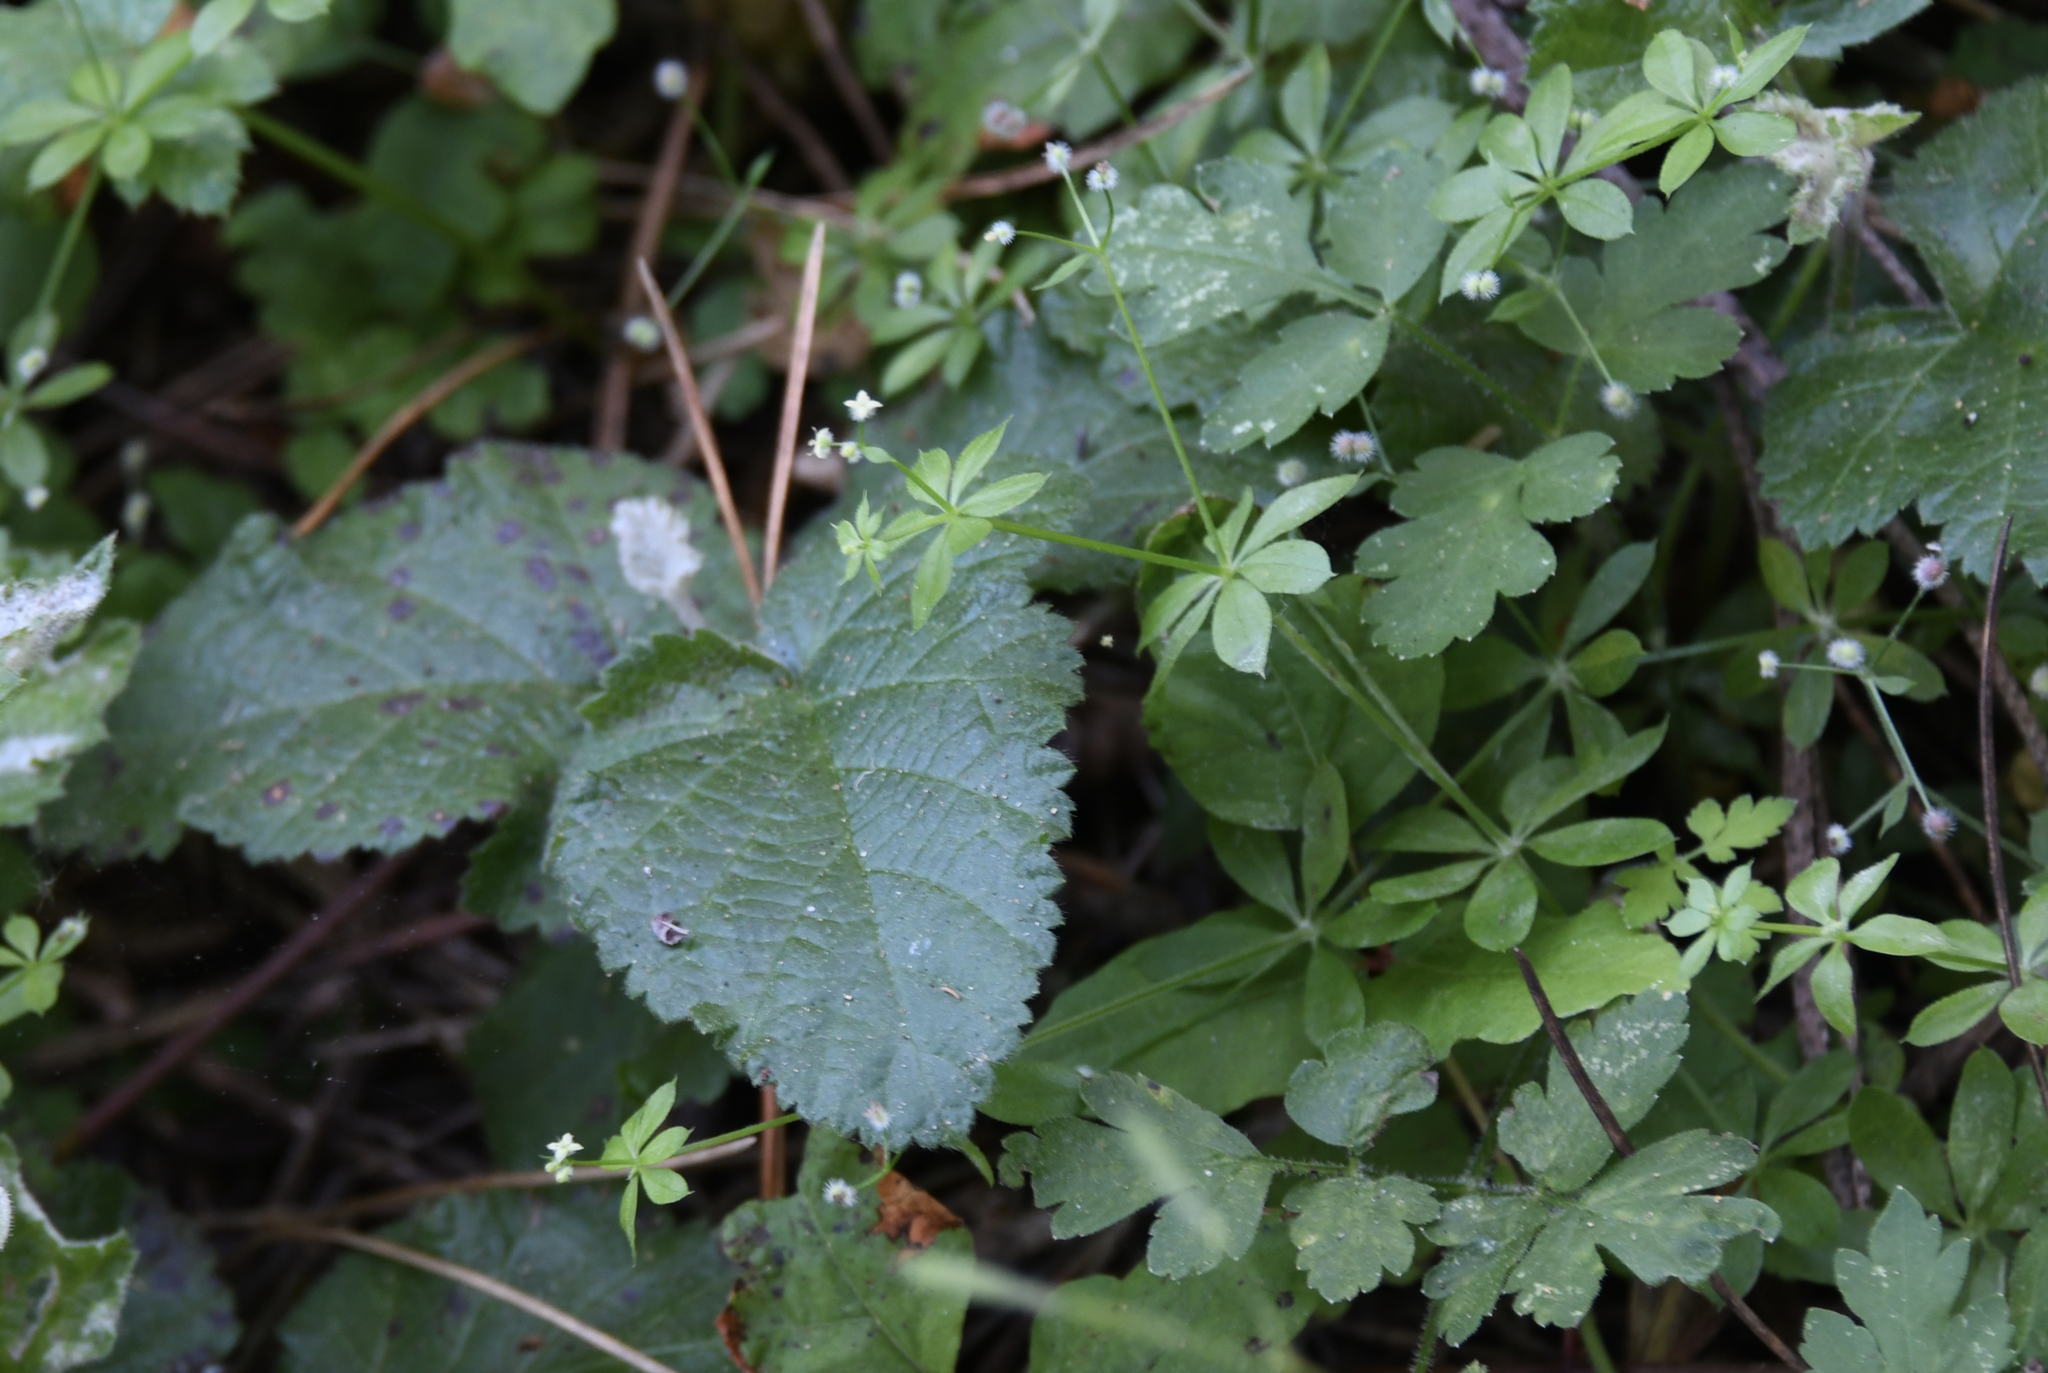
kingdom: Plantae
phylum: Tracheophyta
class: Magnoliopsida
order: Gentianales
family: Rubiaceae
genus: Galium
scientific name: Galium triflorum
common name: Fragrant bedstraw
